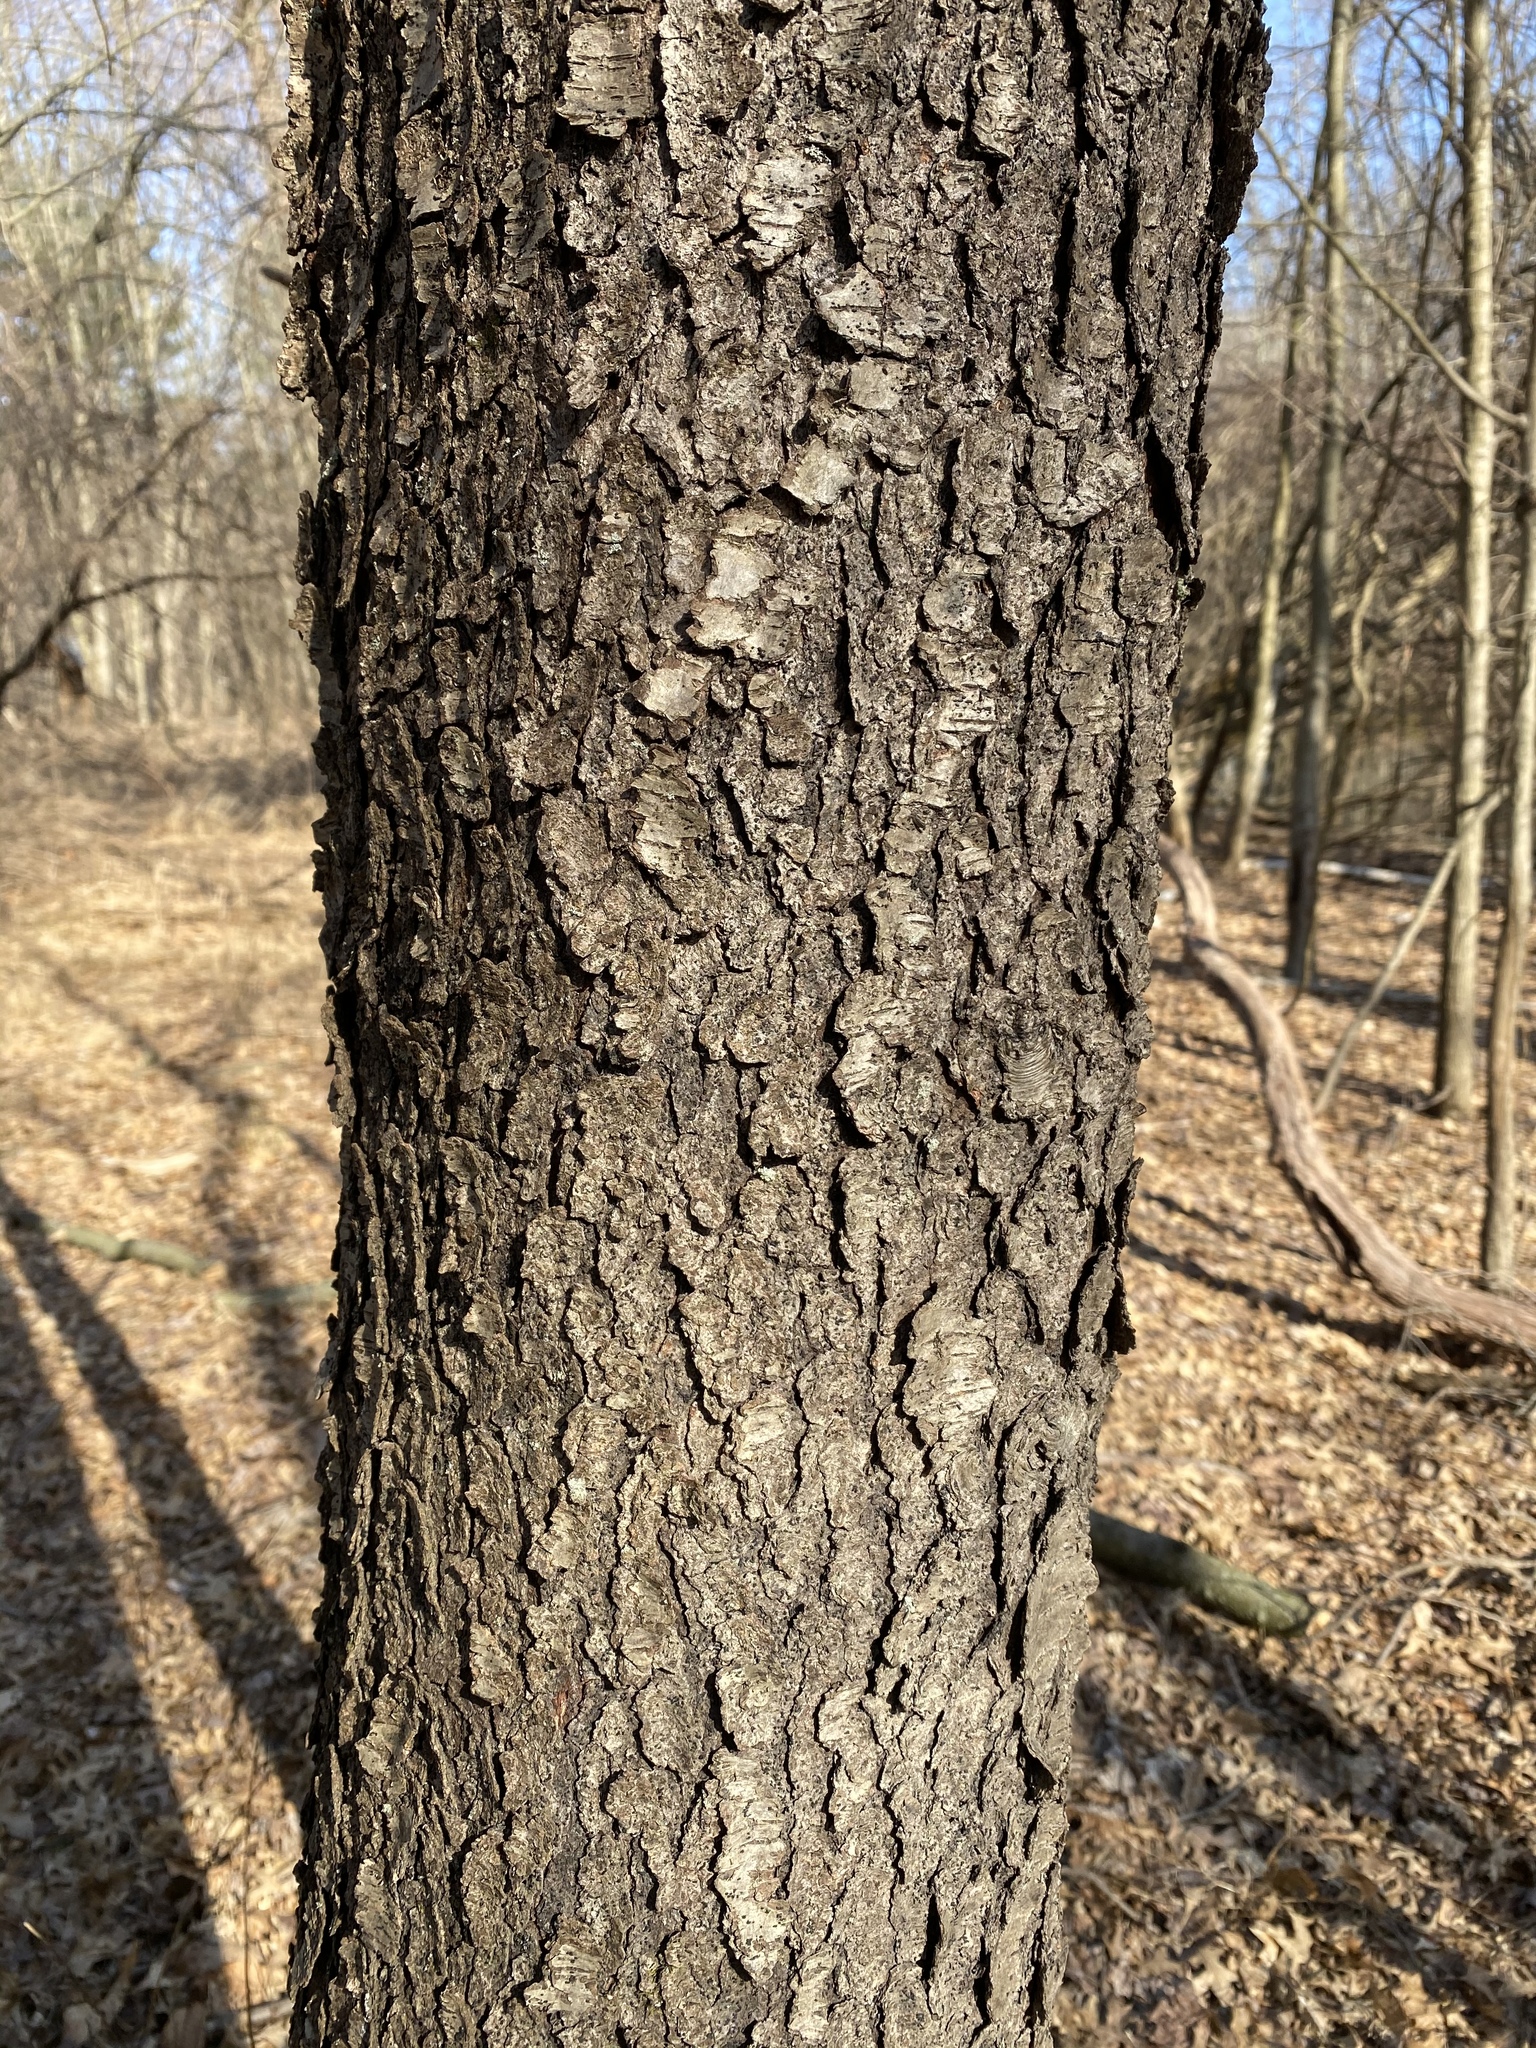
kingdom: Plantae
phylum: Tracheophyta
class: Magnoliopsida
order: Rosales
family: Rosaceae
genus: Prunus
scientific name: Prunus serotina
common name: Black cherry
